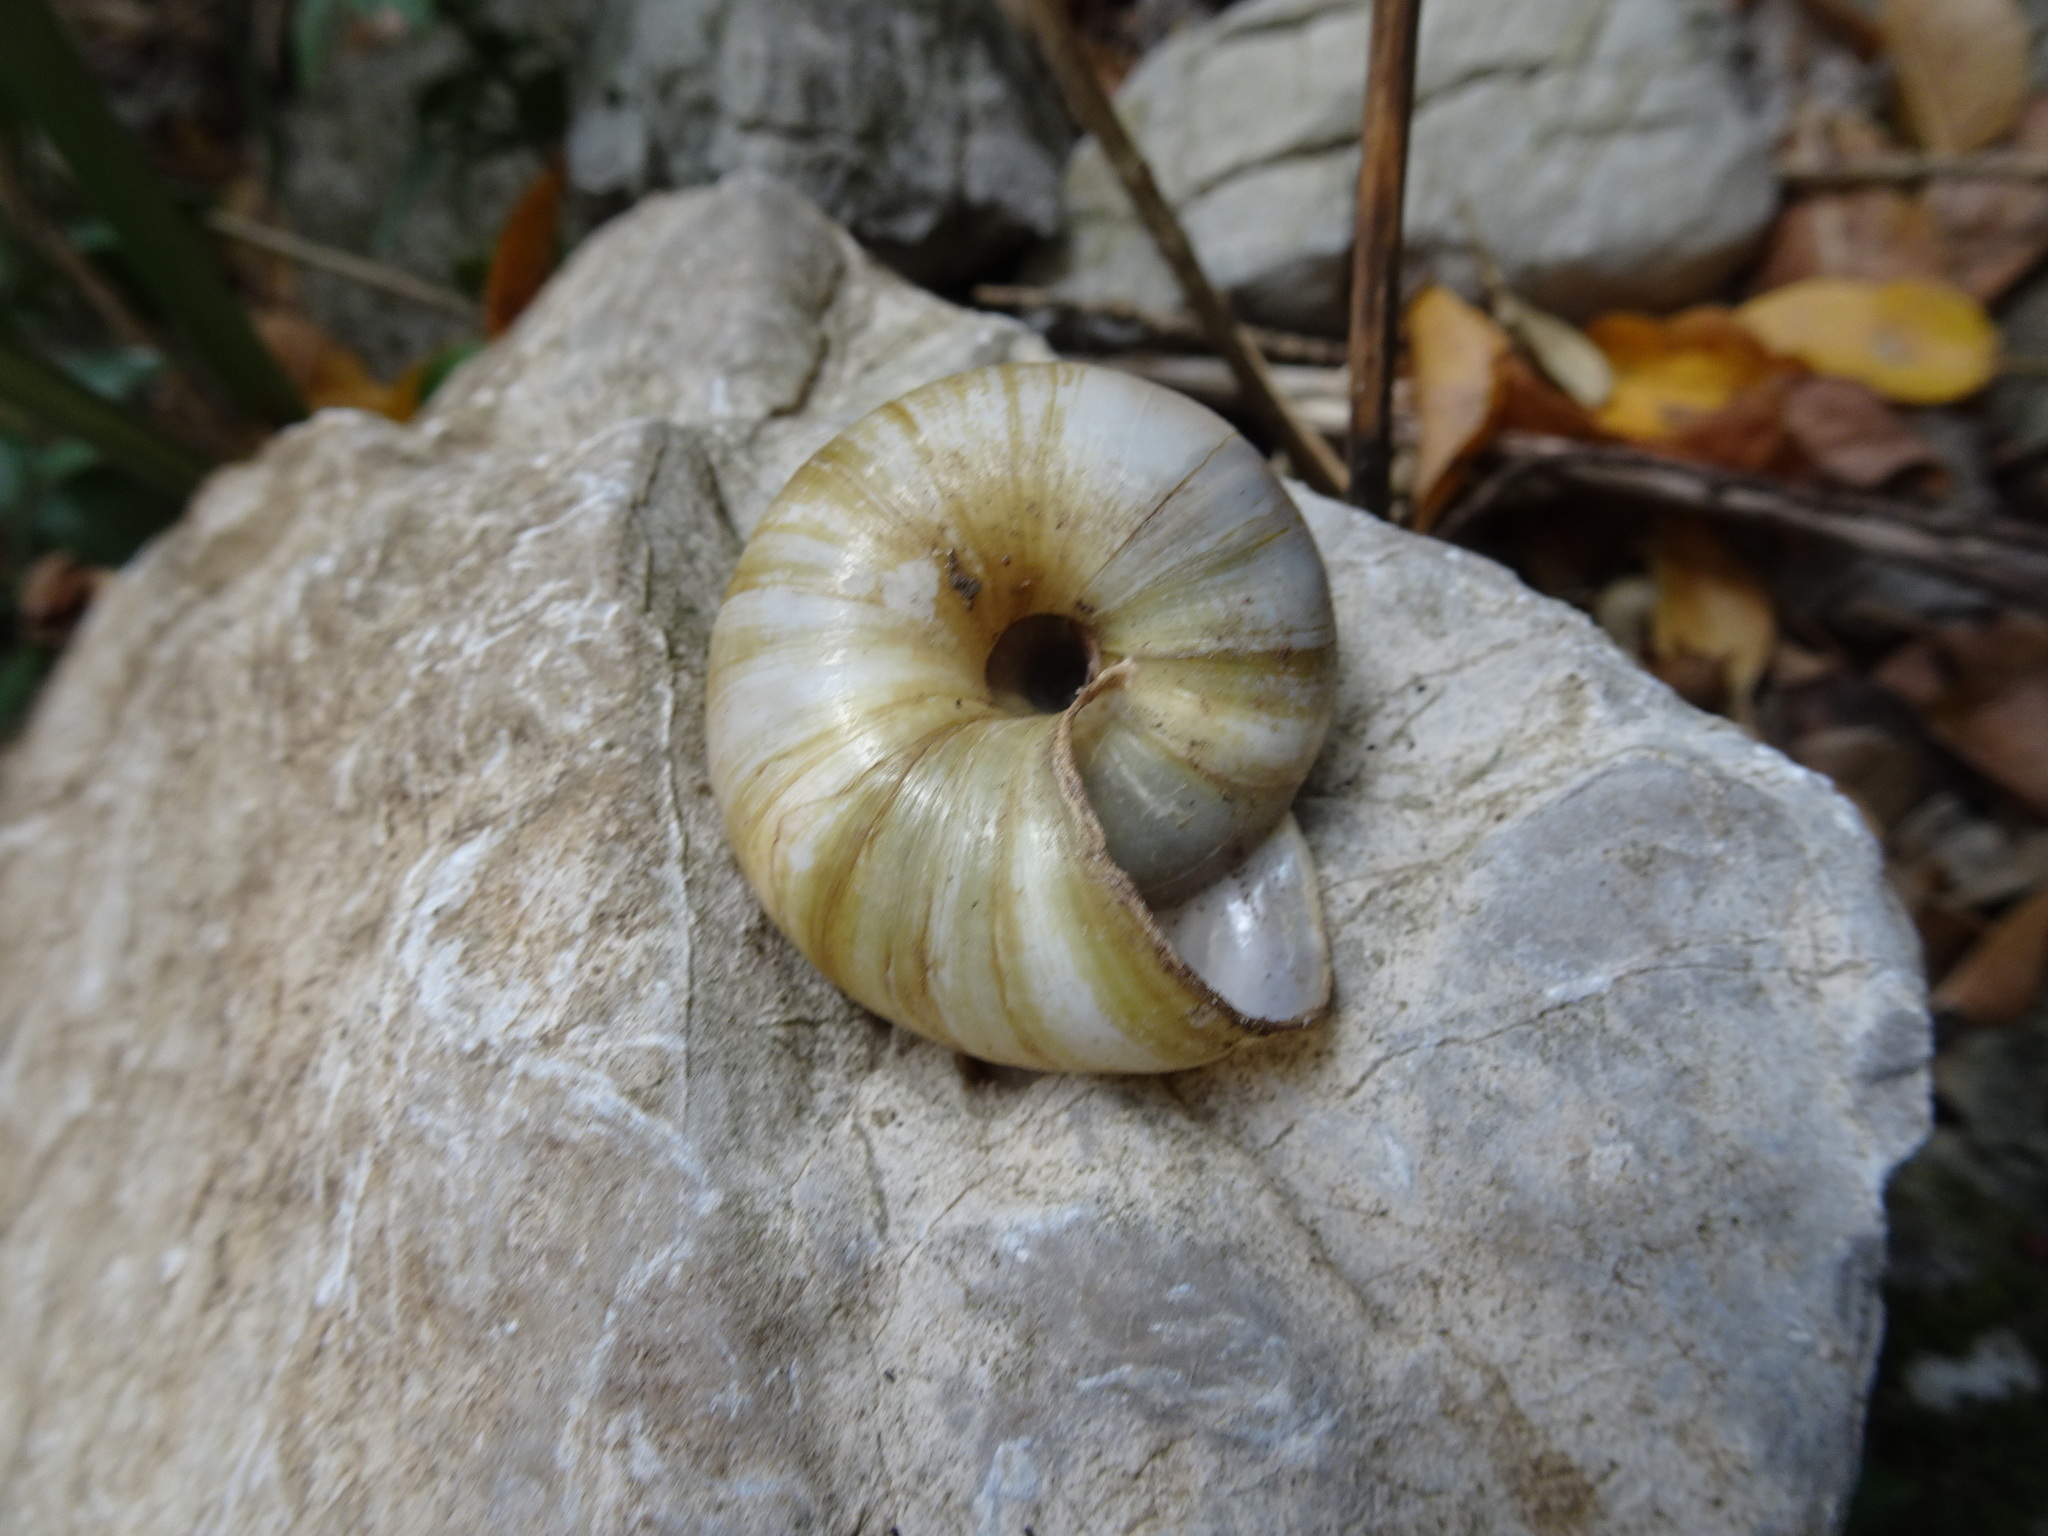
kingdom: Animalia
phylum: Mollusca
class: Gastropoda
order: Stylommatophora
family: Zonitidae
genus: Zonites
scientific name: Zonites algirus
